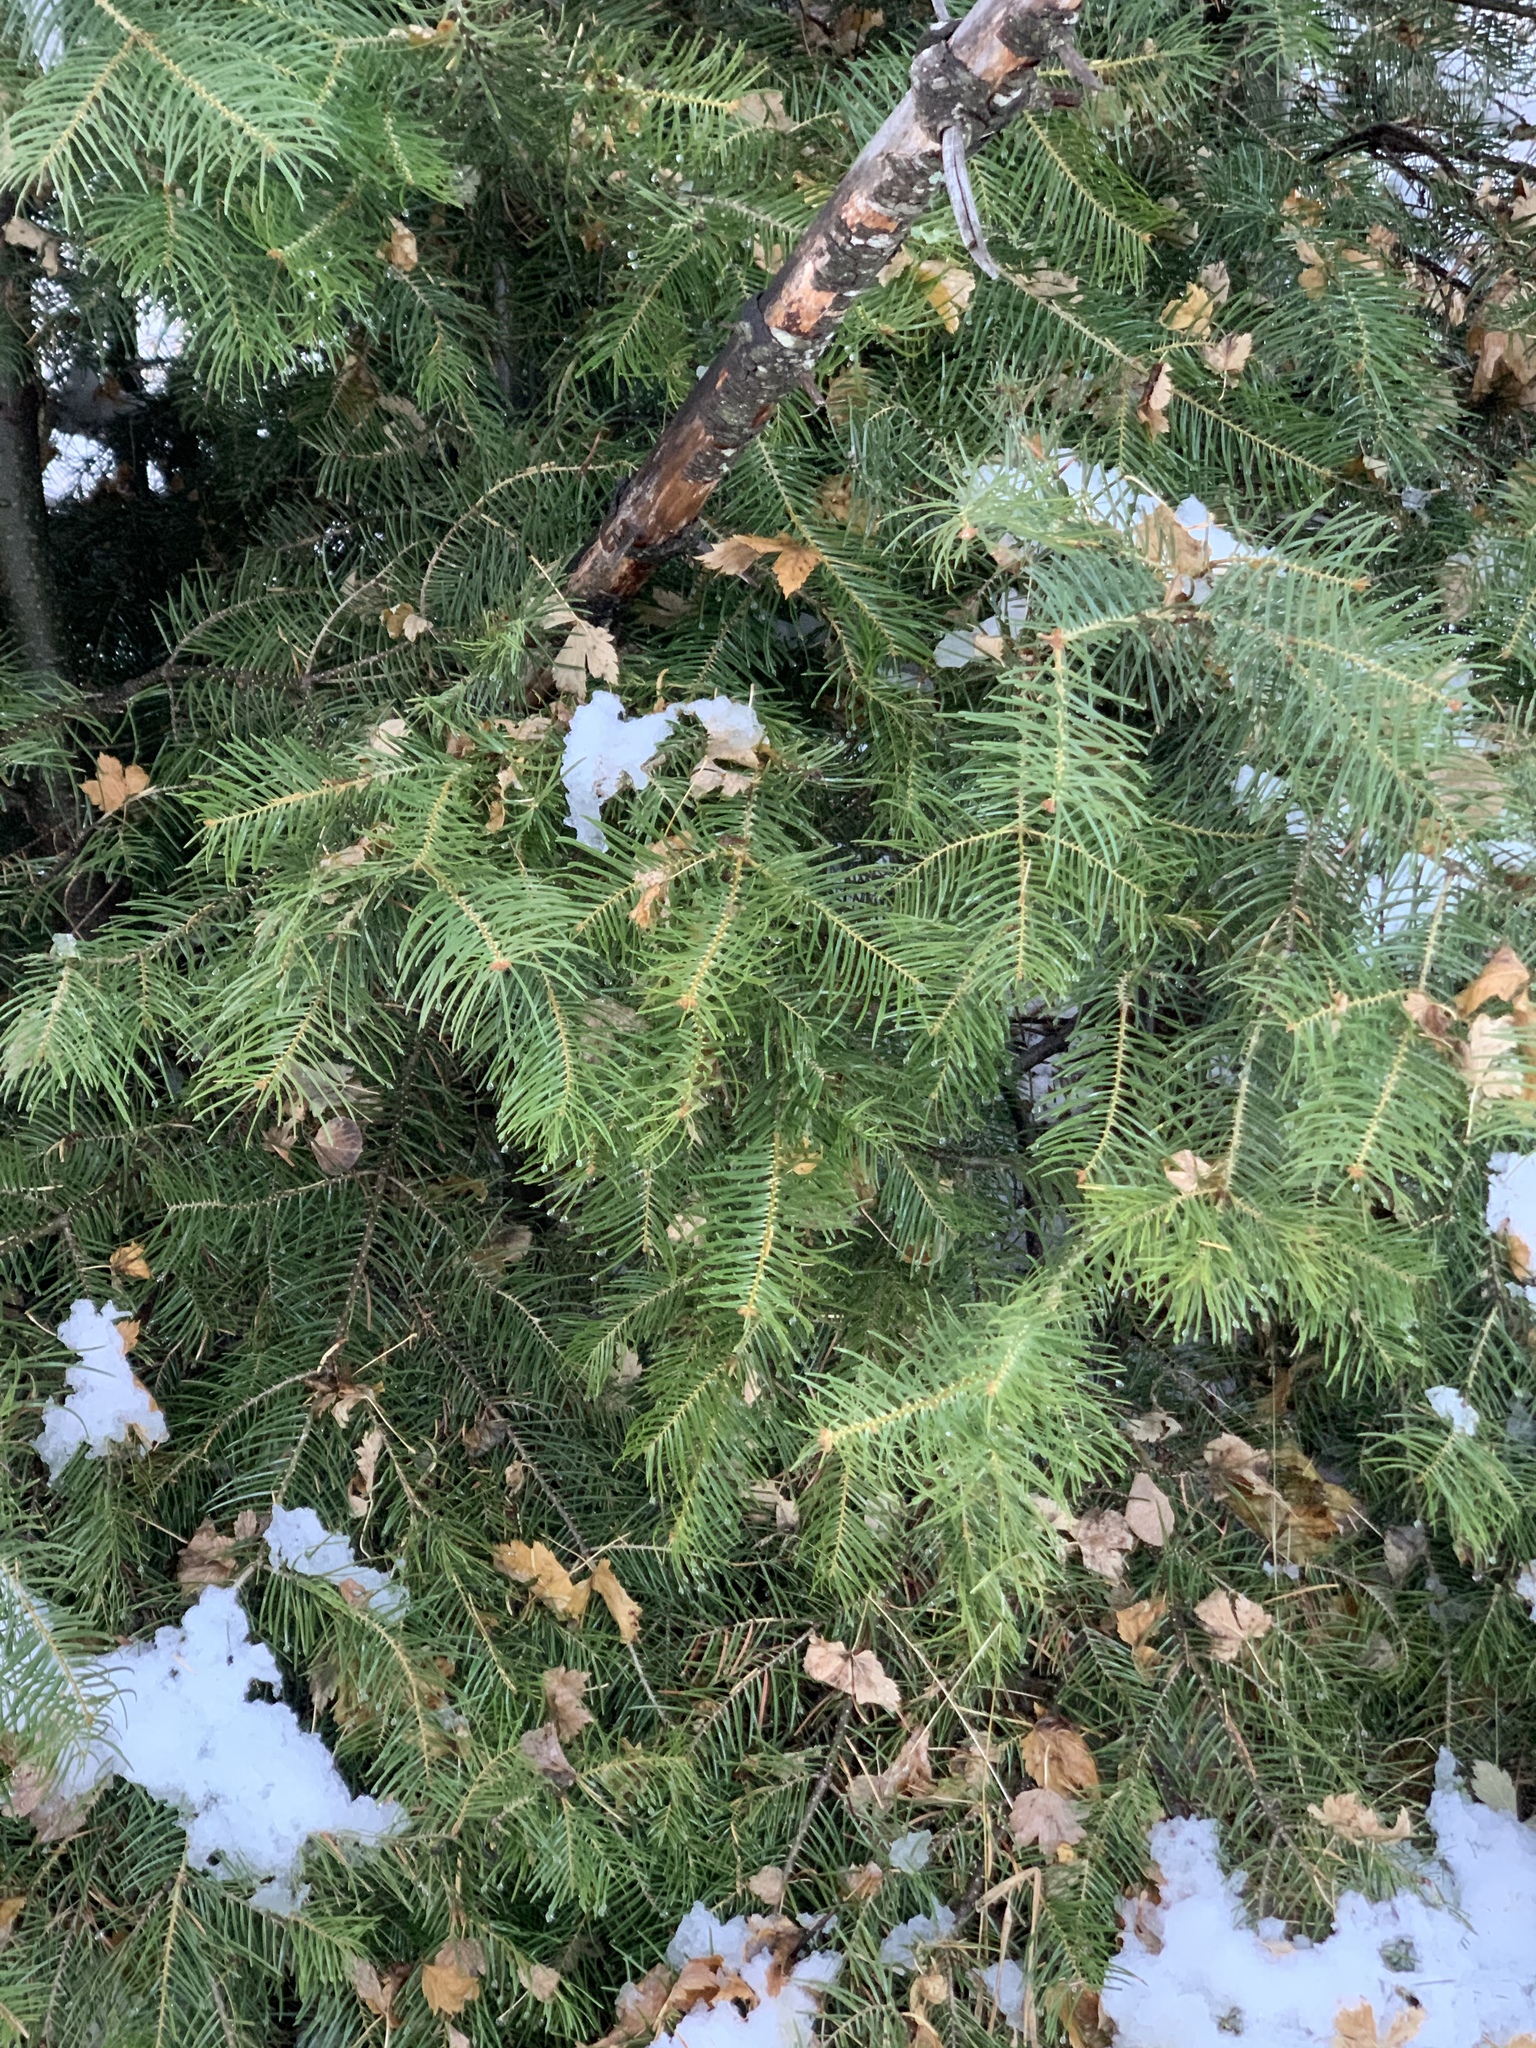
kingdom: Plantae
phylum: Tracheophyta
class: Pinopsida
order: Pinales
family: Pinaceae
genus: Abies
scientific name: Abies concolor
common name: Colorado fir
